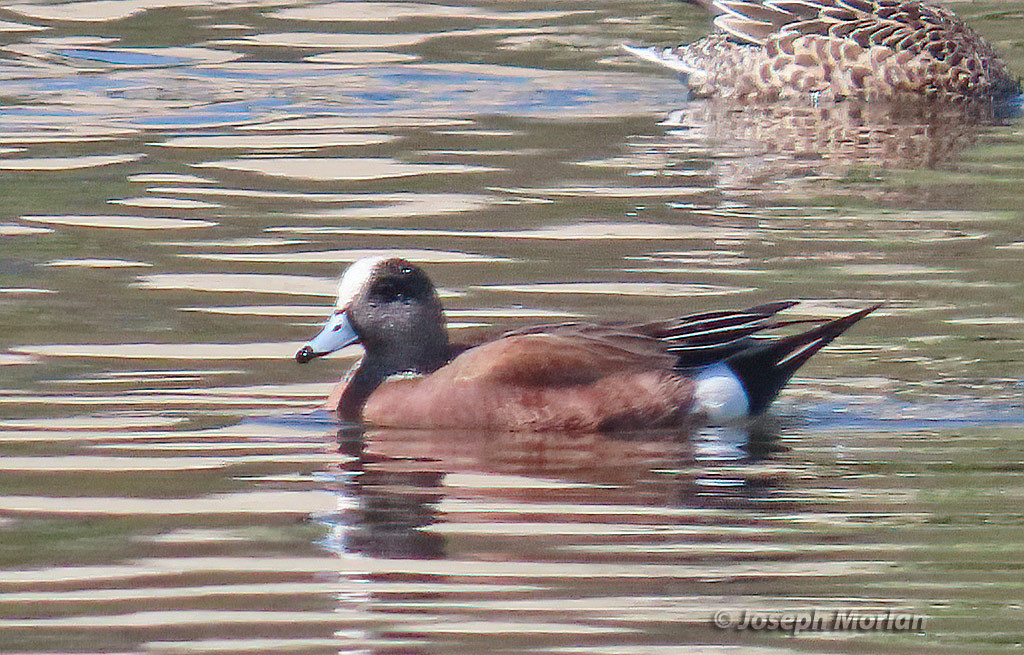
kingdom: Animalia
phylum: Chordata
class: Aves
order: Anseriformes
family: Anatidae
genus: Mareca
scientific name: Mareca americana
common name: American wigeon
